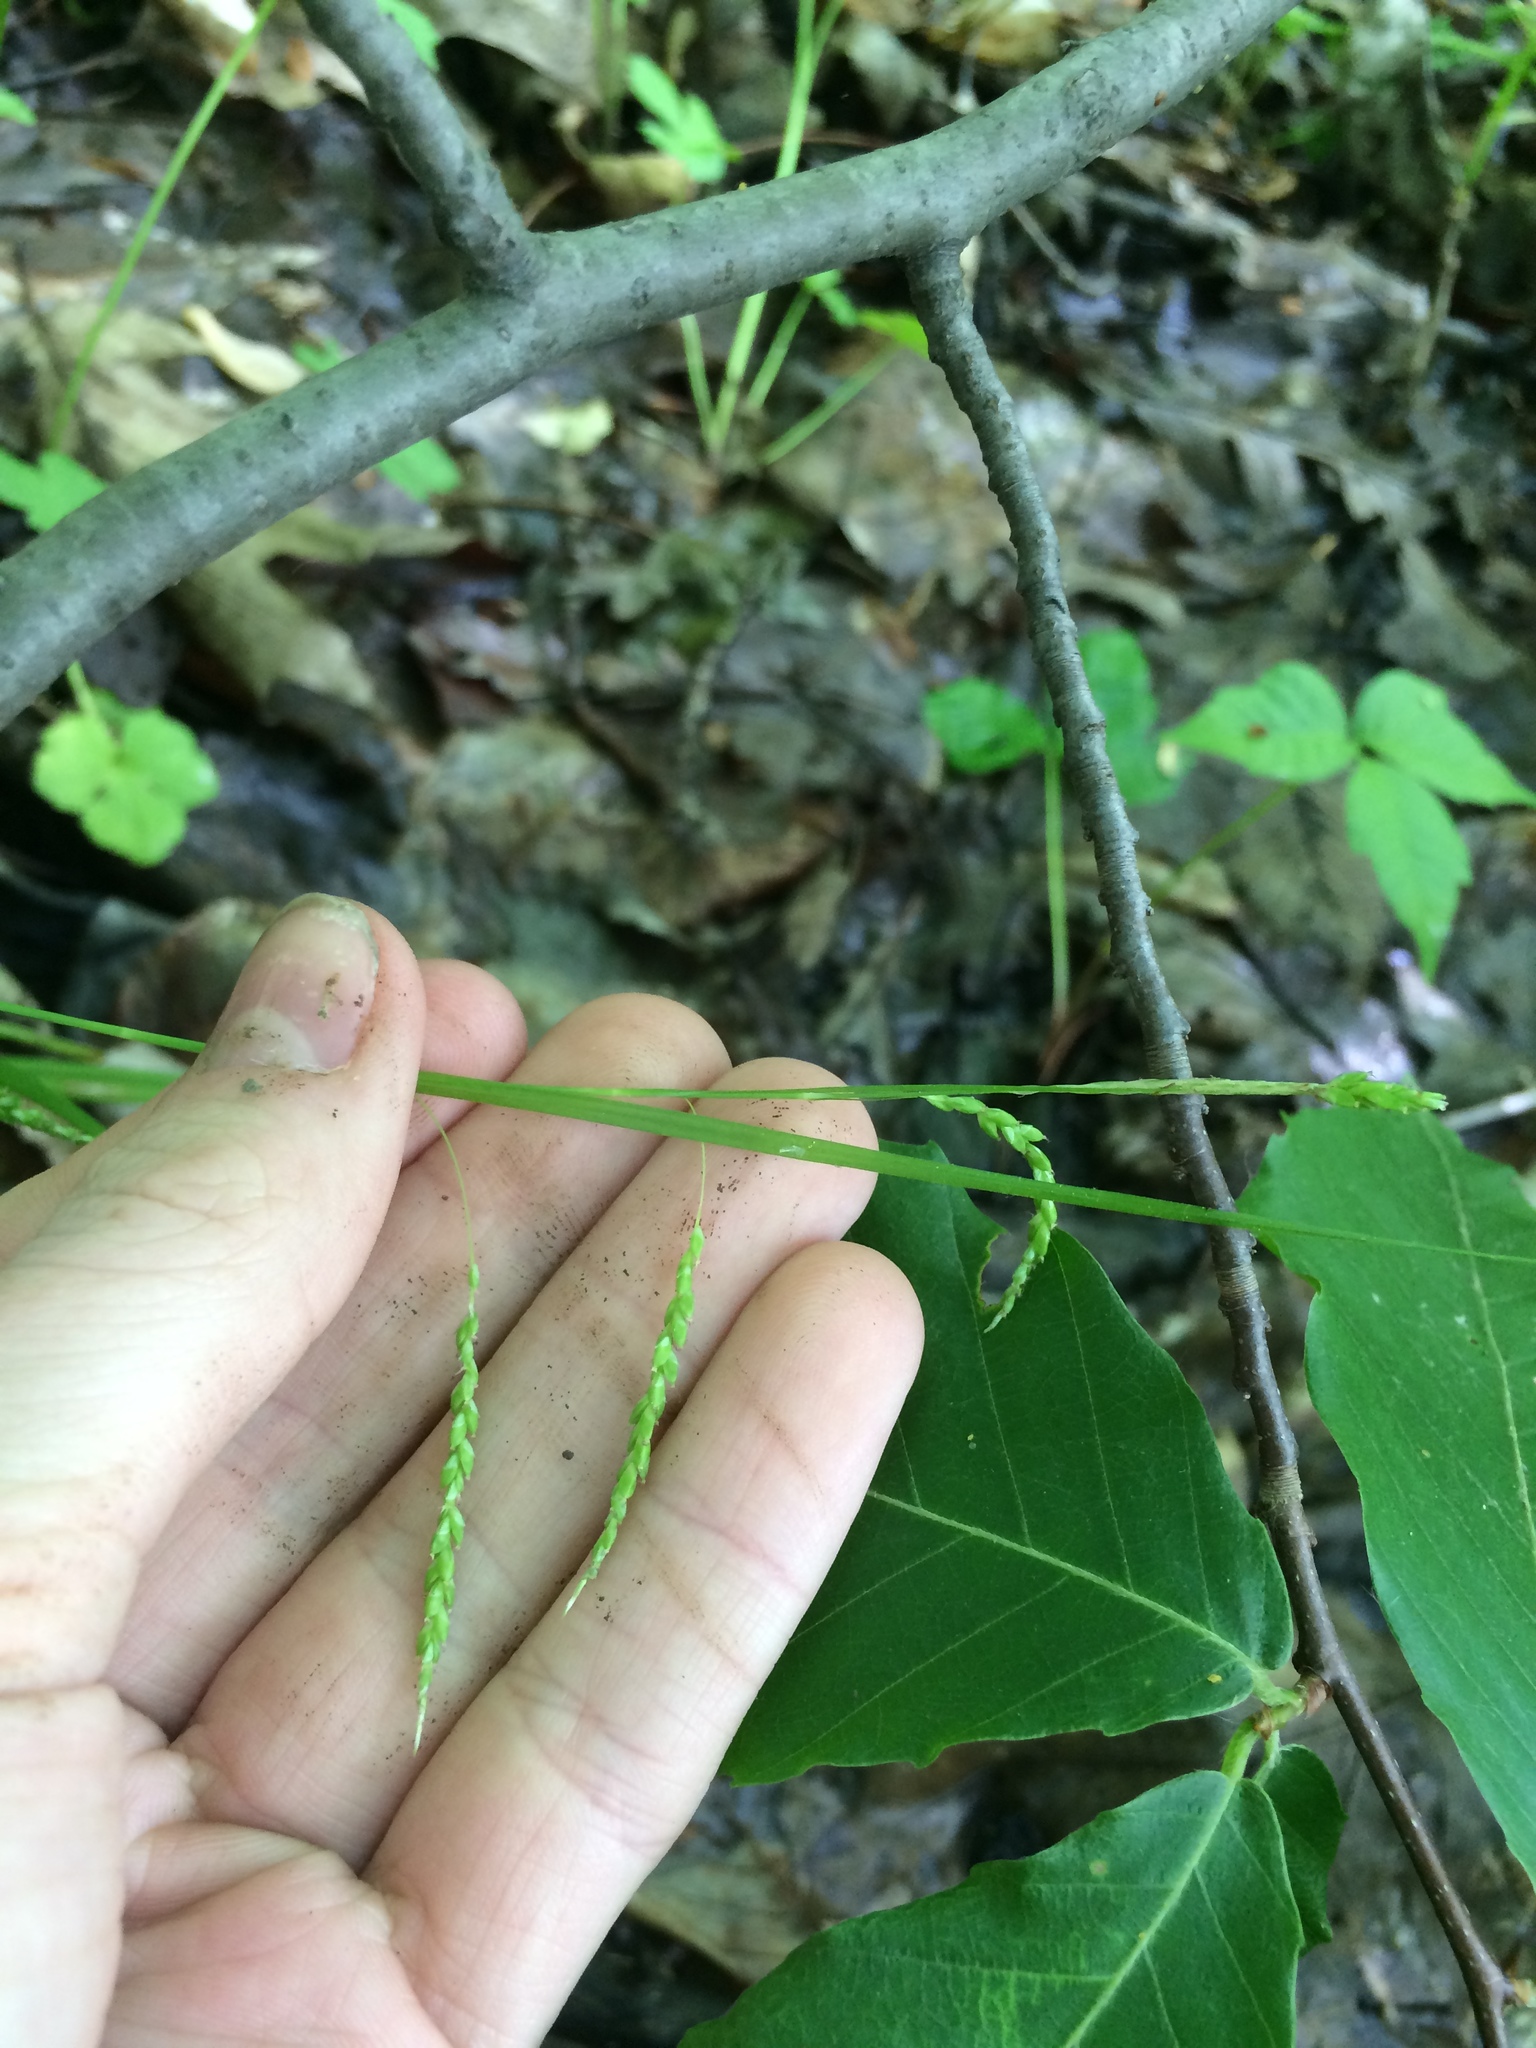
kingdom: Plantae
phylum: Tracheophyta
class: Liliopsida
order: Poales
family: Cyperaceae
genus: Carex
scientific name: Carex gracillima
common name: Graceful sedge
